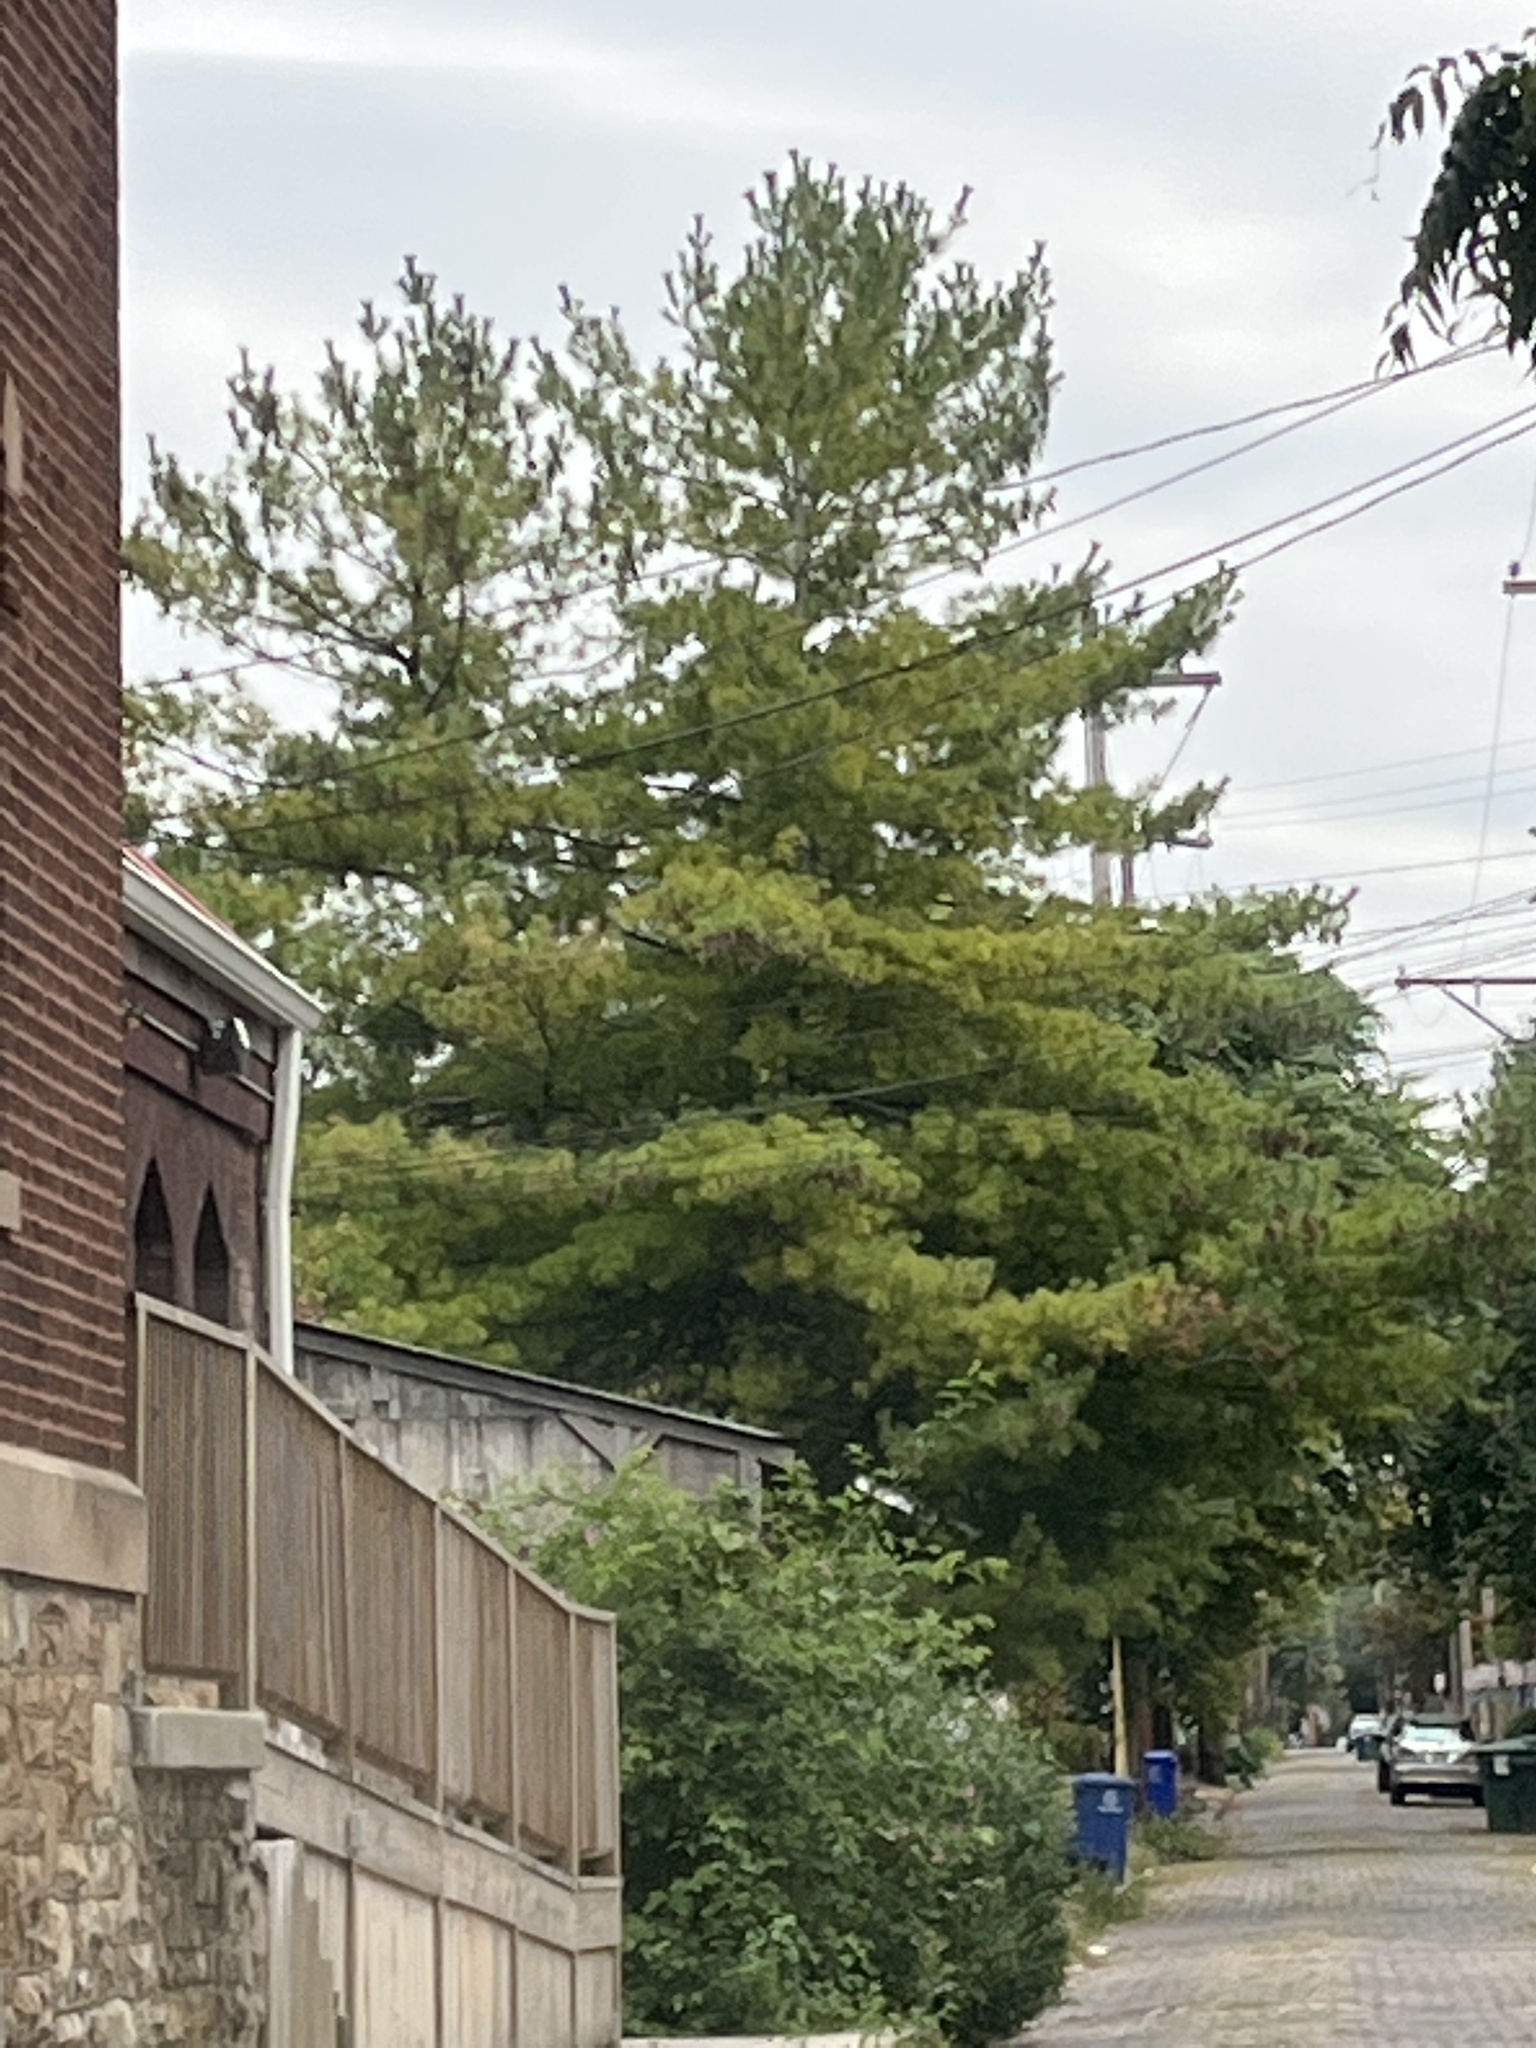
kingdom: Plantae
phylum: Tracheophyta
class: Pinopsida
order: Pinales
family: Pinaceae
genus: Pinus
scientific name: Pinus strobus
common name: Weymouth pine
